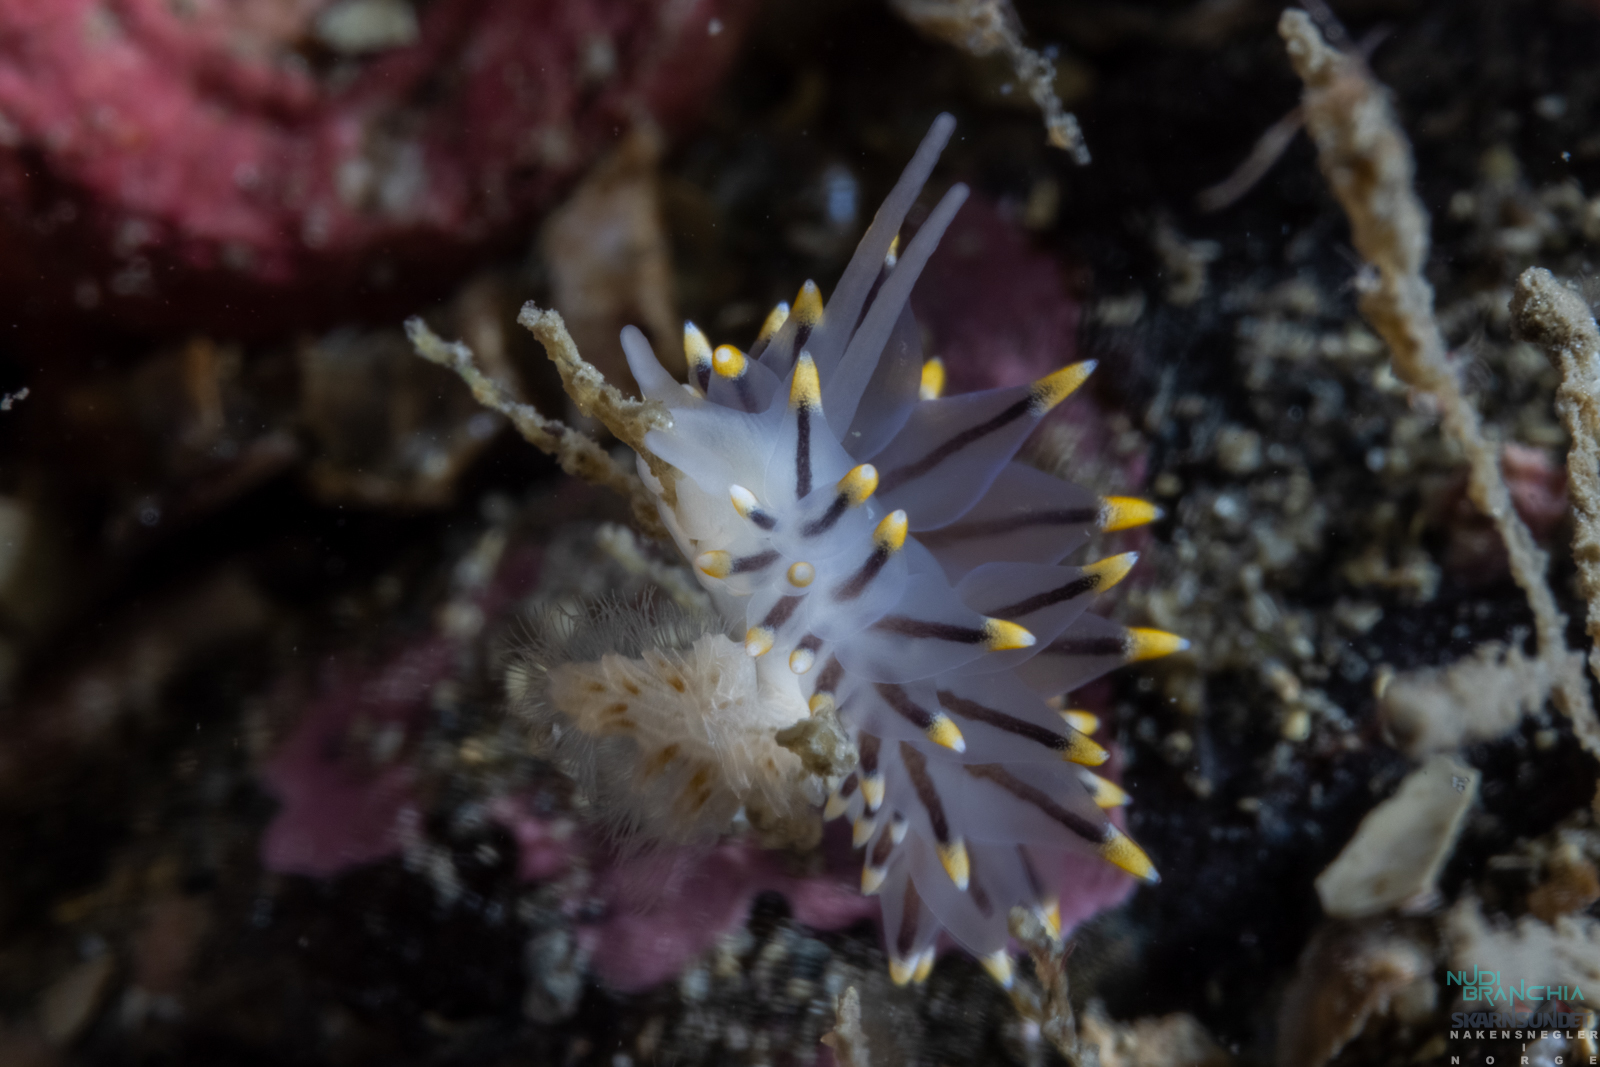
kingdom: Animalia
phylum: Mollusca
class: Gastropoda
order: Nudibranchia
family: Eubranchidae
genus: Eubranchus
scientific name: Eubranchus tricolor
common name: Painted balloon aeolis
